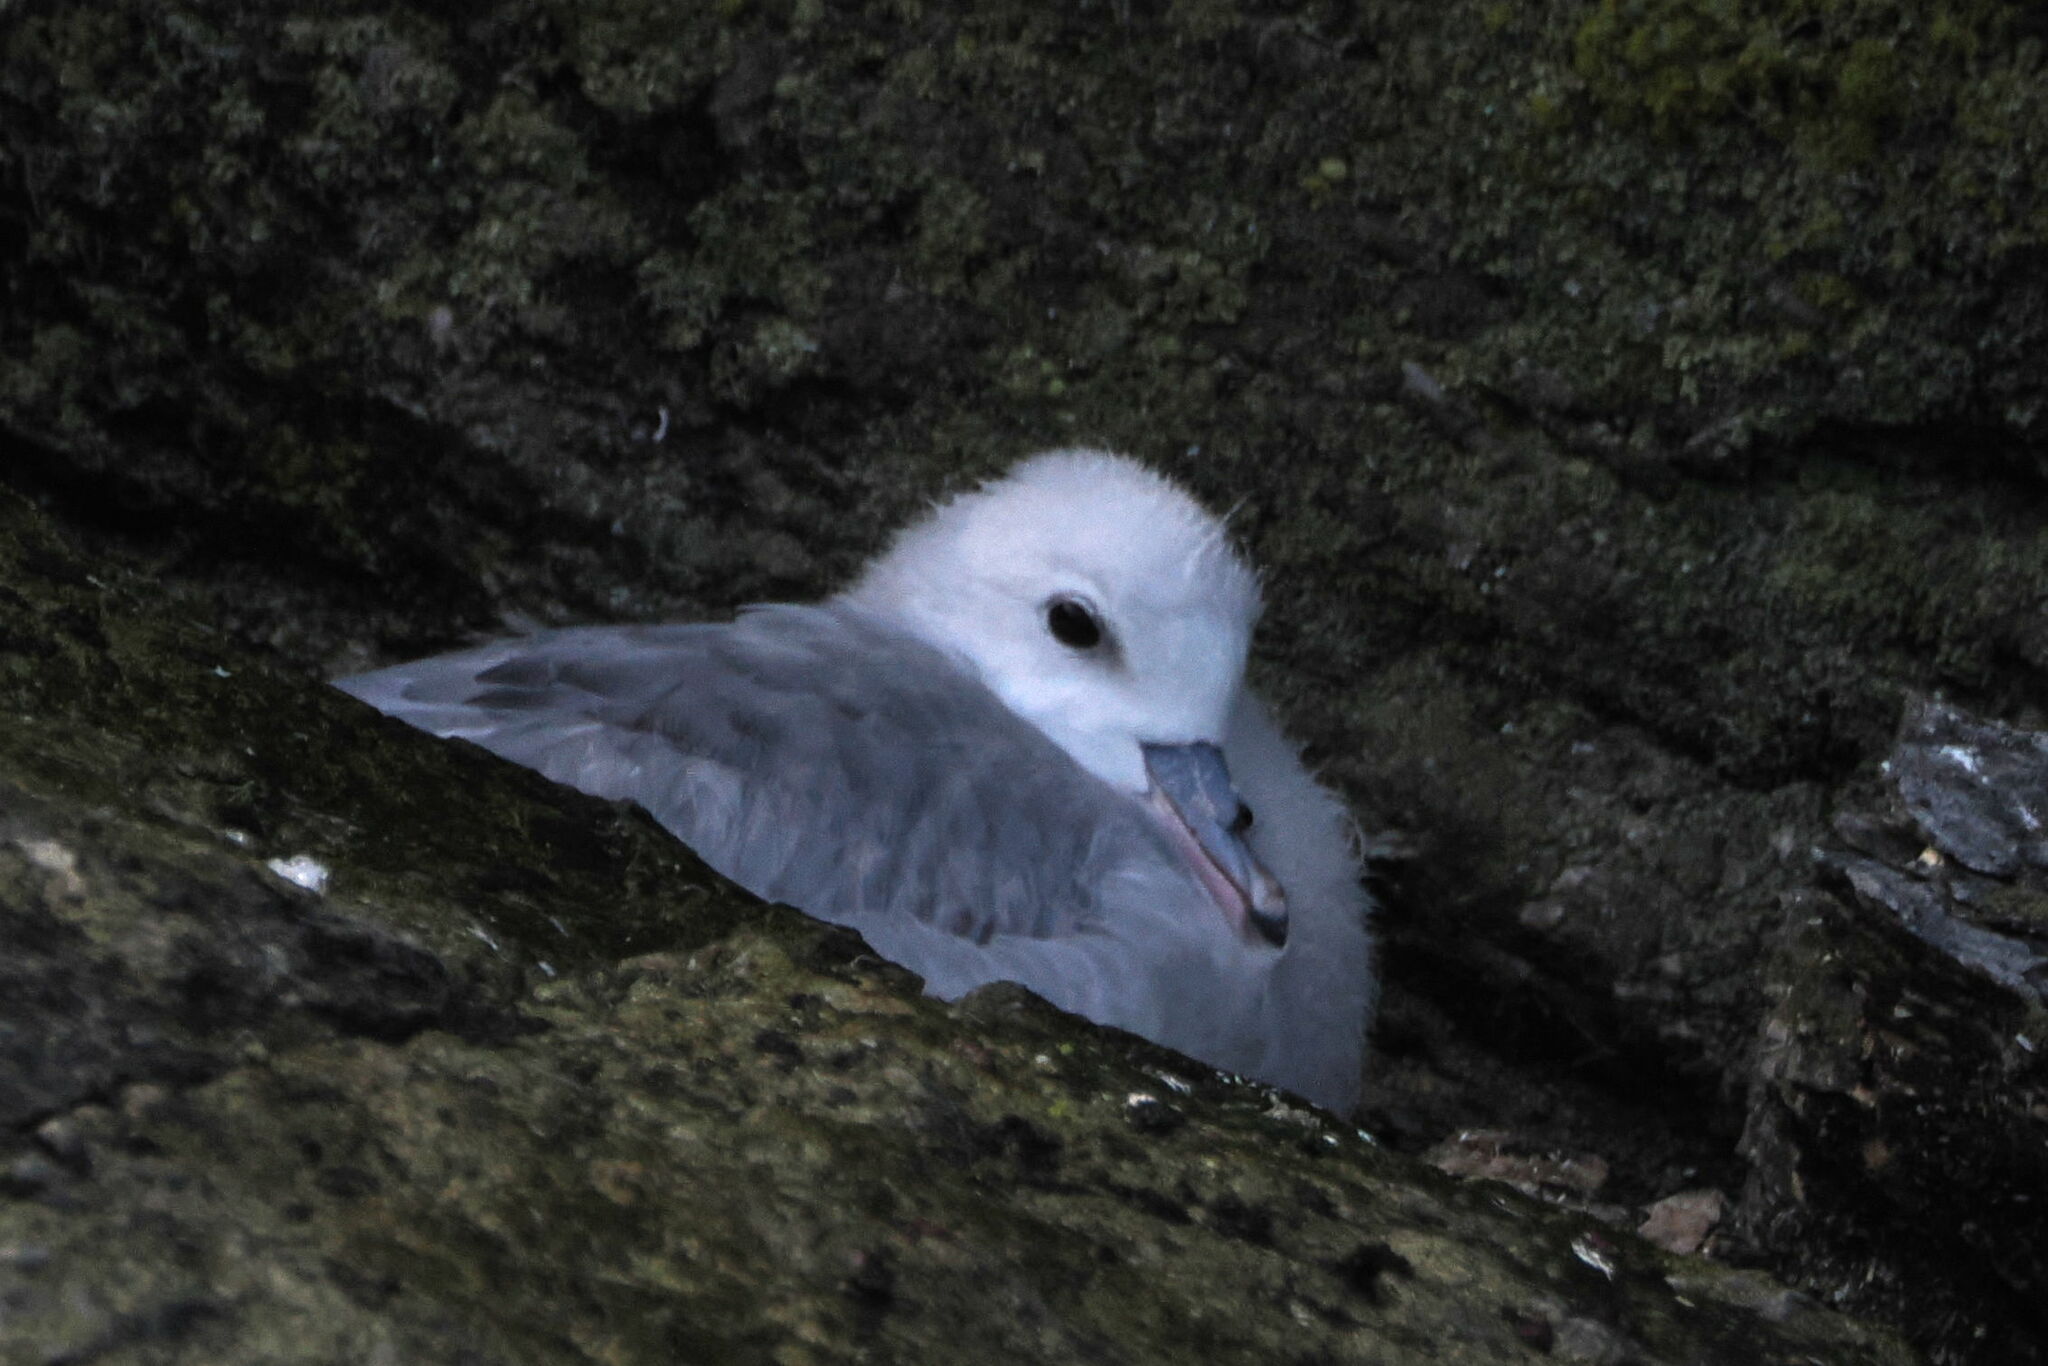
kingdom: Animalia
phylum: Chordata
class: Aves
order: Procellariiformes
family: Procellariidae
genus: Fulmarus
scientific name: Fulmarus glacialoides
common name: Southern fulmar
